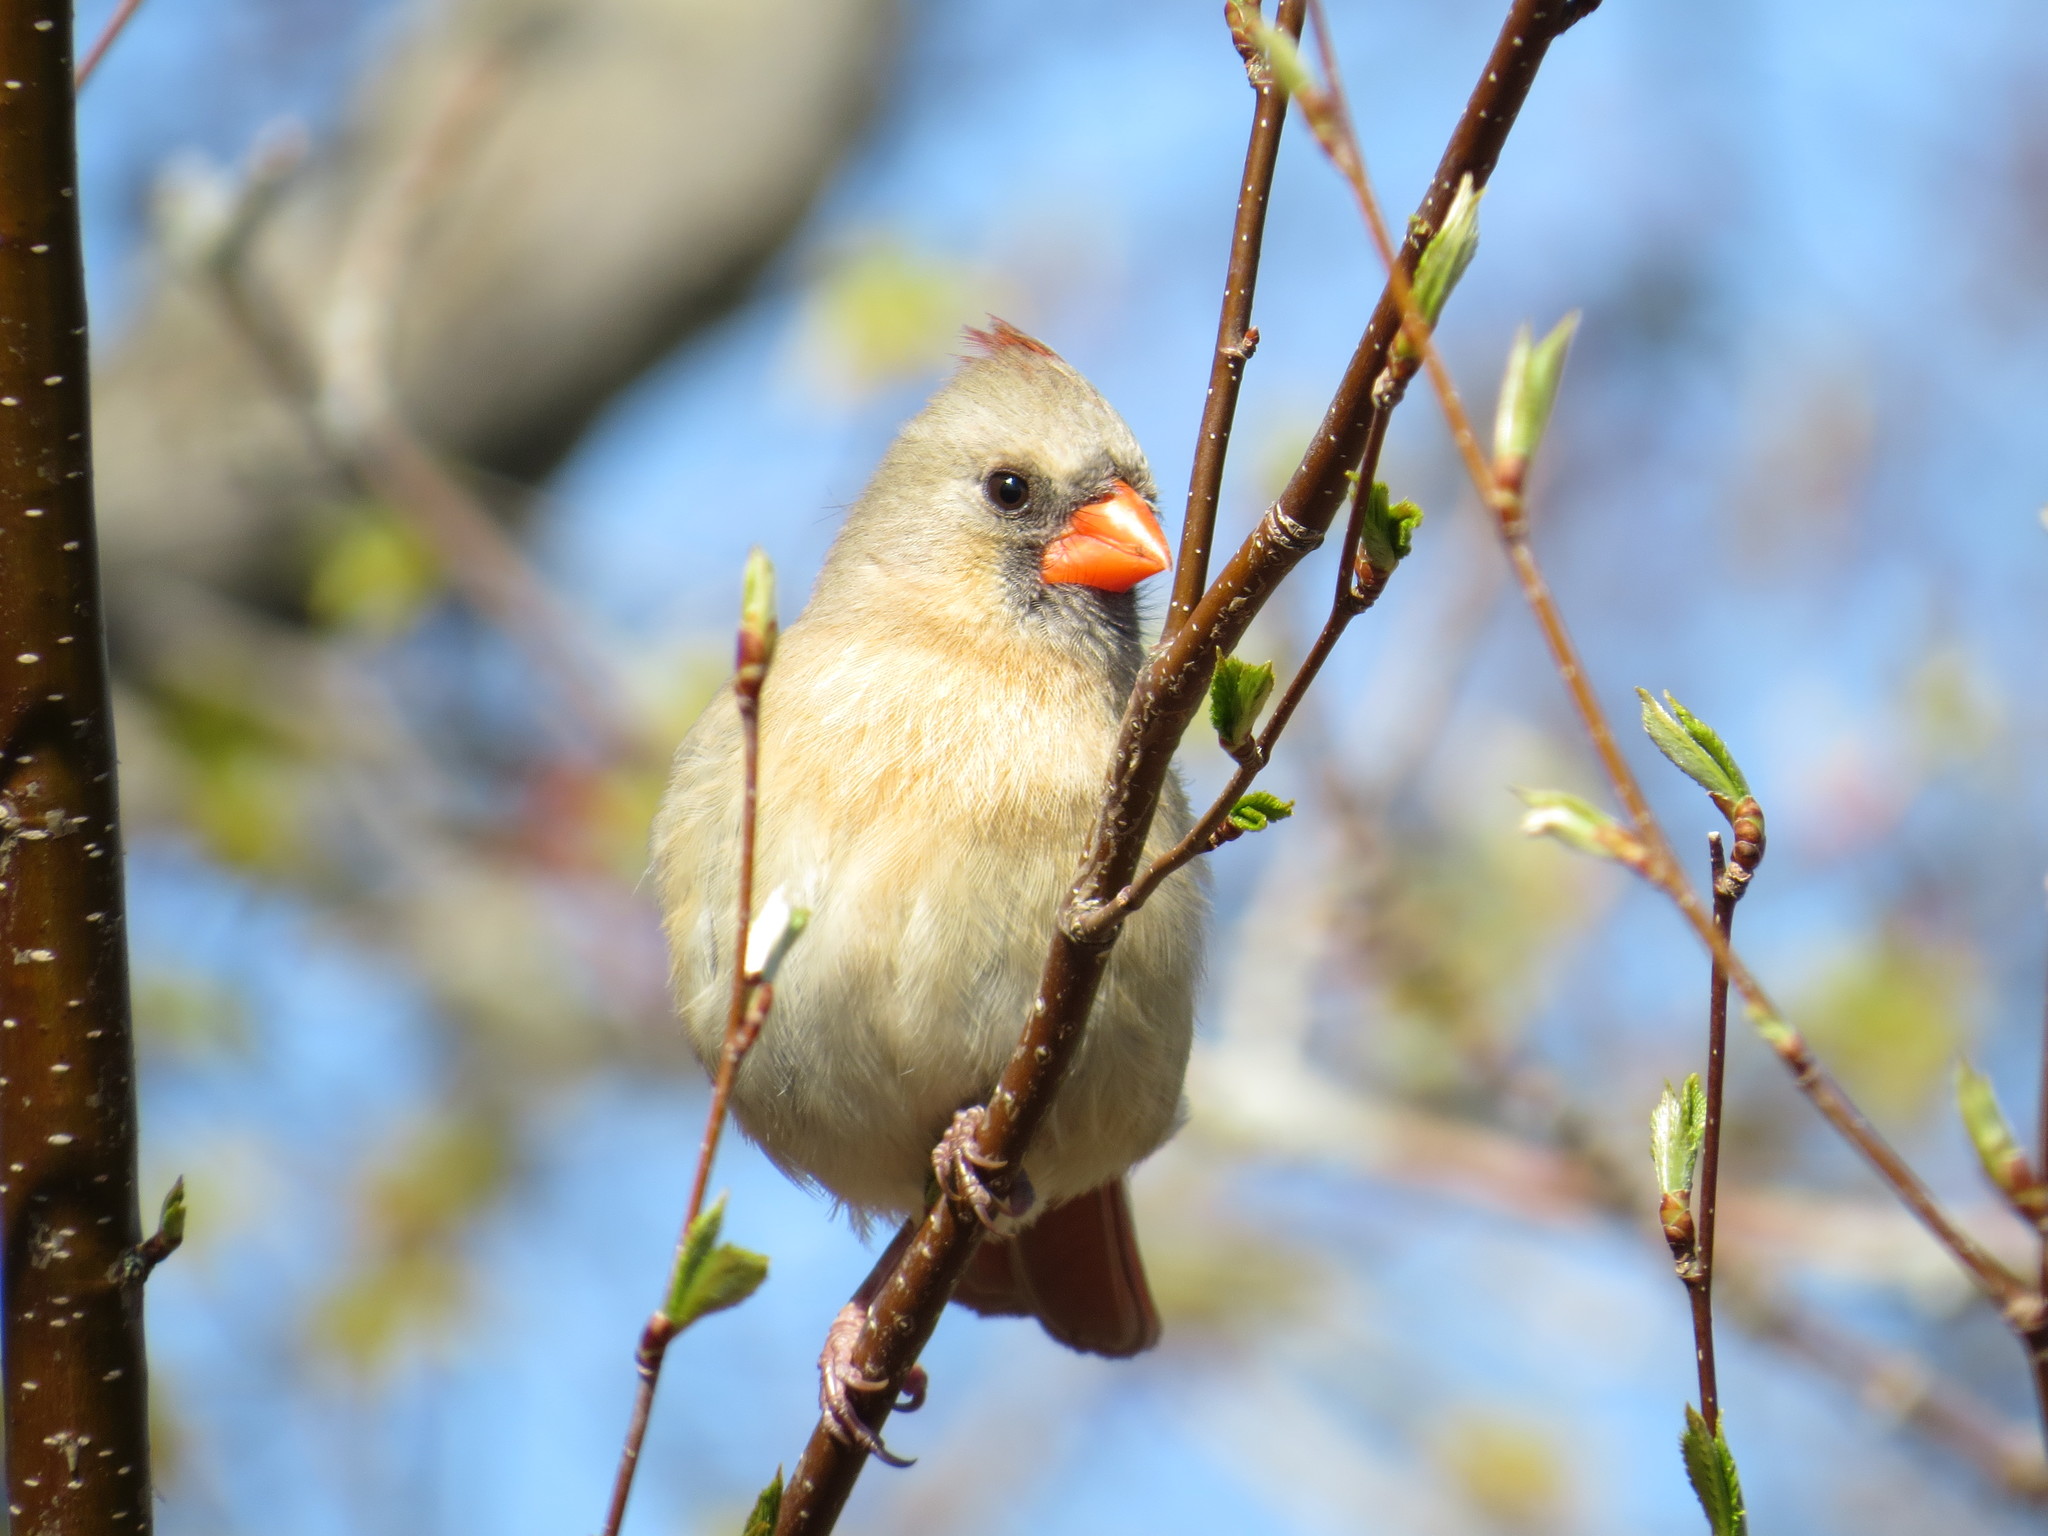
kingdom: Animalia
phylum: Chordata
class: Aves
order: Passeriformes
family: Cardinalidae
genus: Cardinalis
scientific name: Cardinalis cardinalis
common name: Northern cardinal
